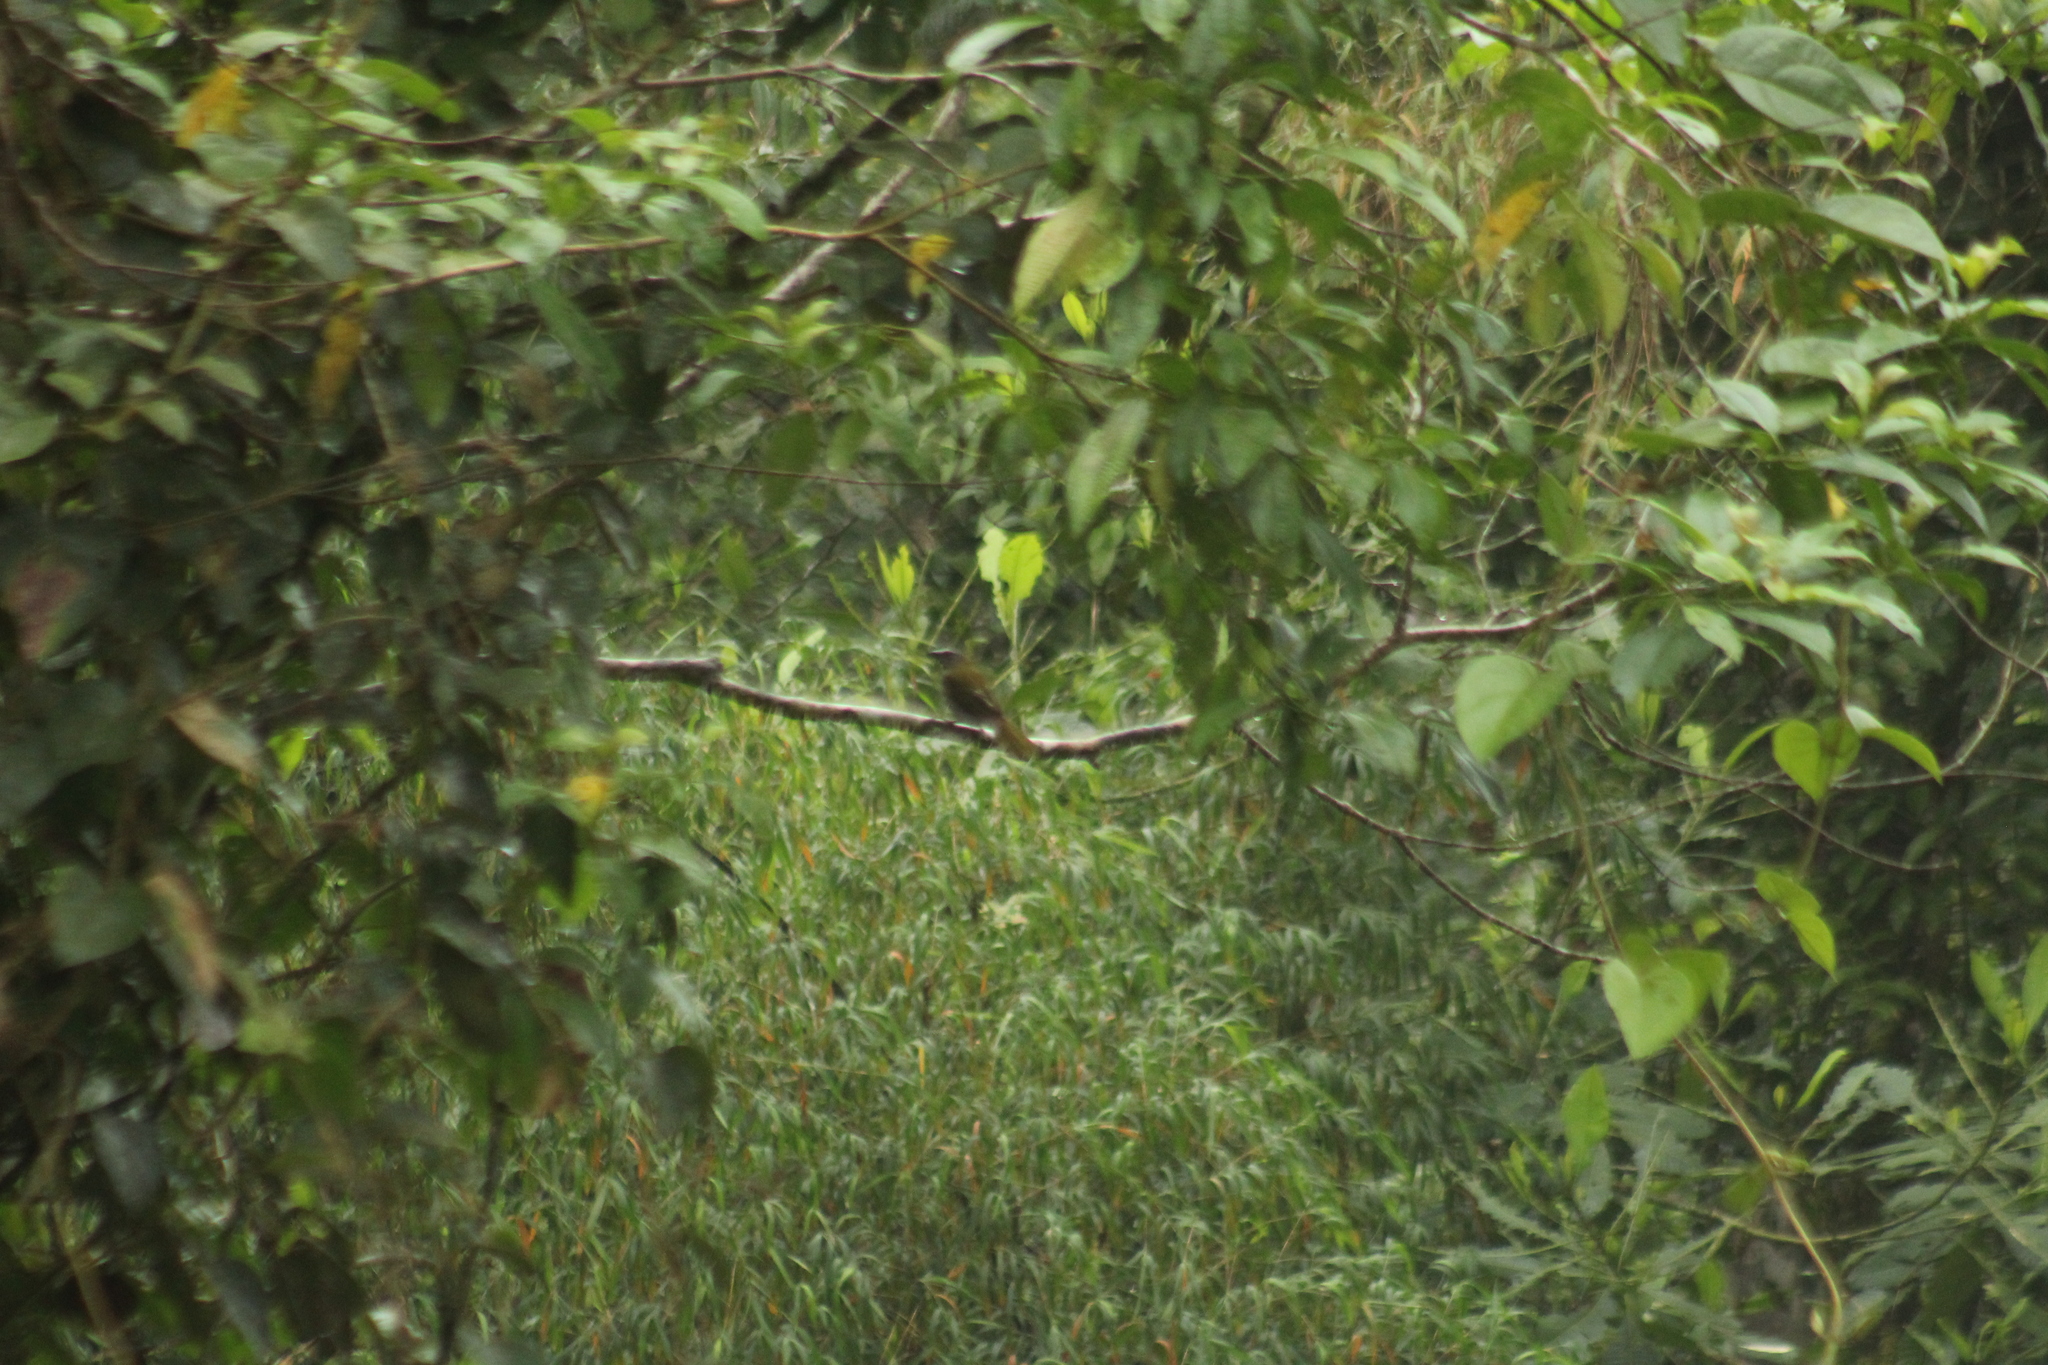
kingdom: Animalia
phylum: Chordata
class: Aves
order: Passeriformes
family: Thraupidae
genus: Saltator
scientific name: Saltator maximus
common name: Buff-throated saltator
